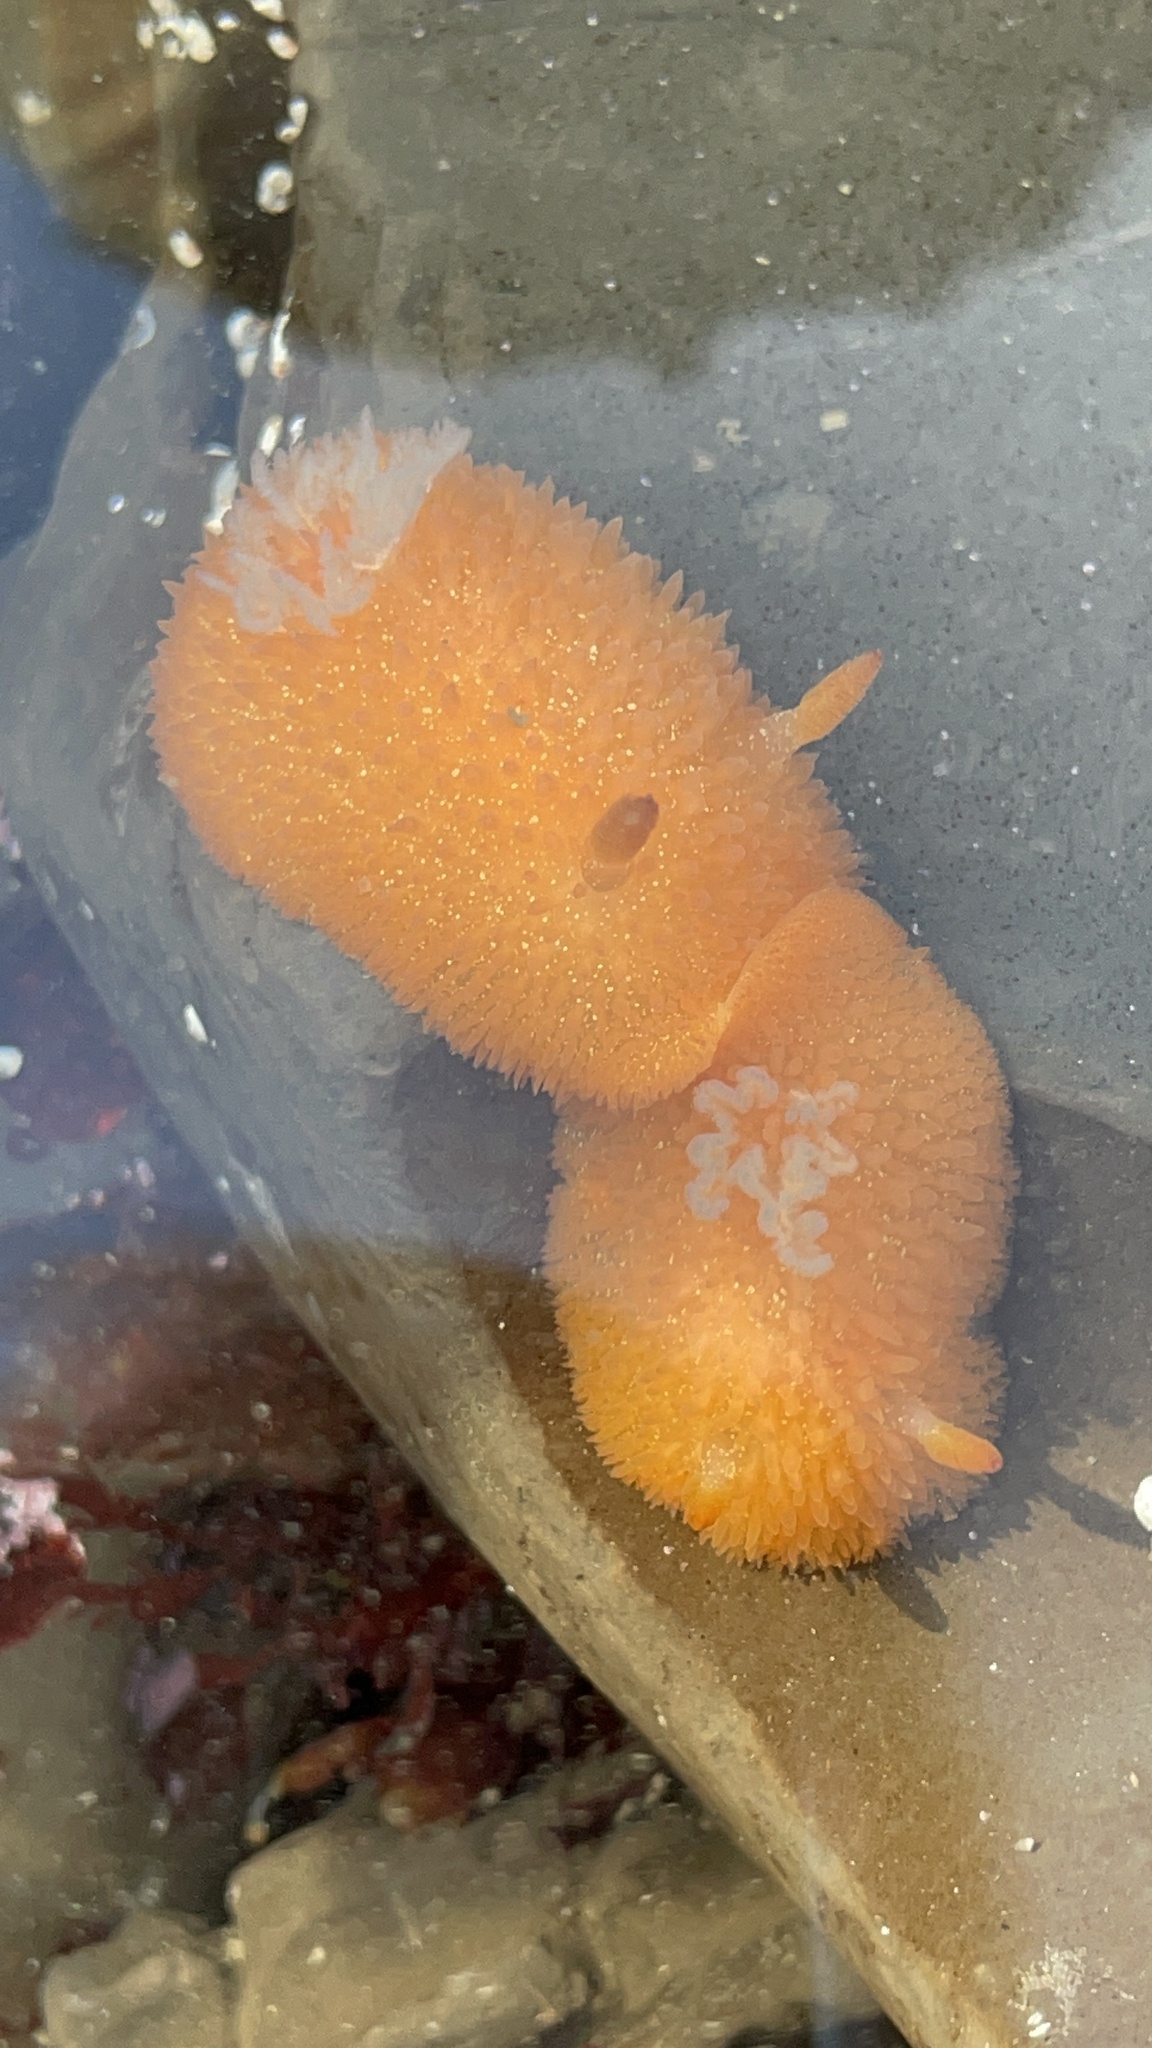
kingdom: Animalia
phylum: Mollusca
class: Gastropoda
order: Nudibranchia
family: Onchidorididae
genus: Acanthodoris
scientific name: Acanthodoris lutea
